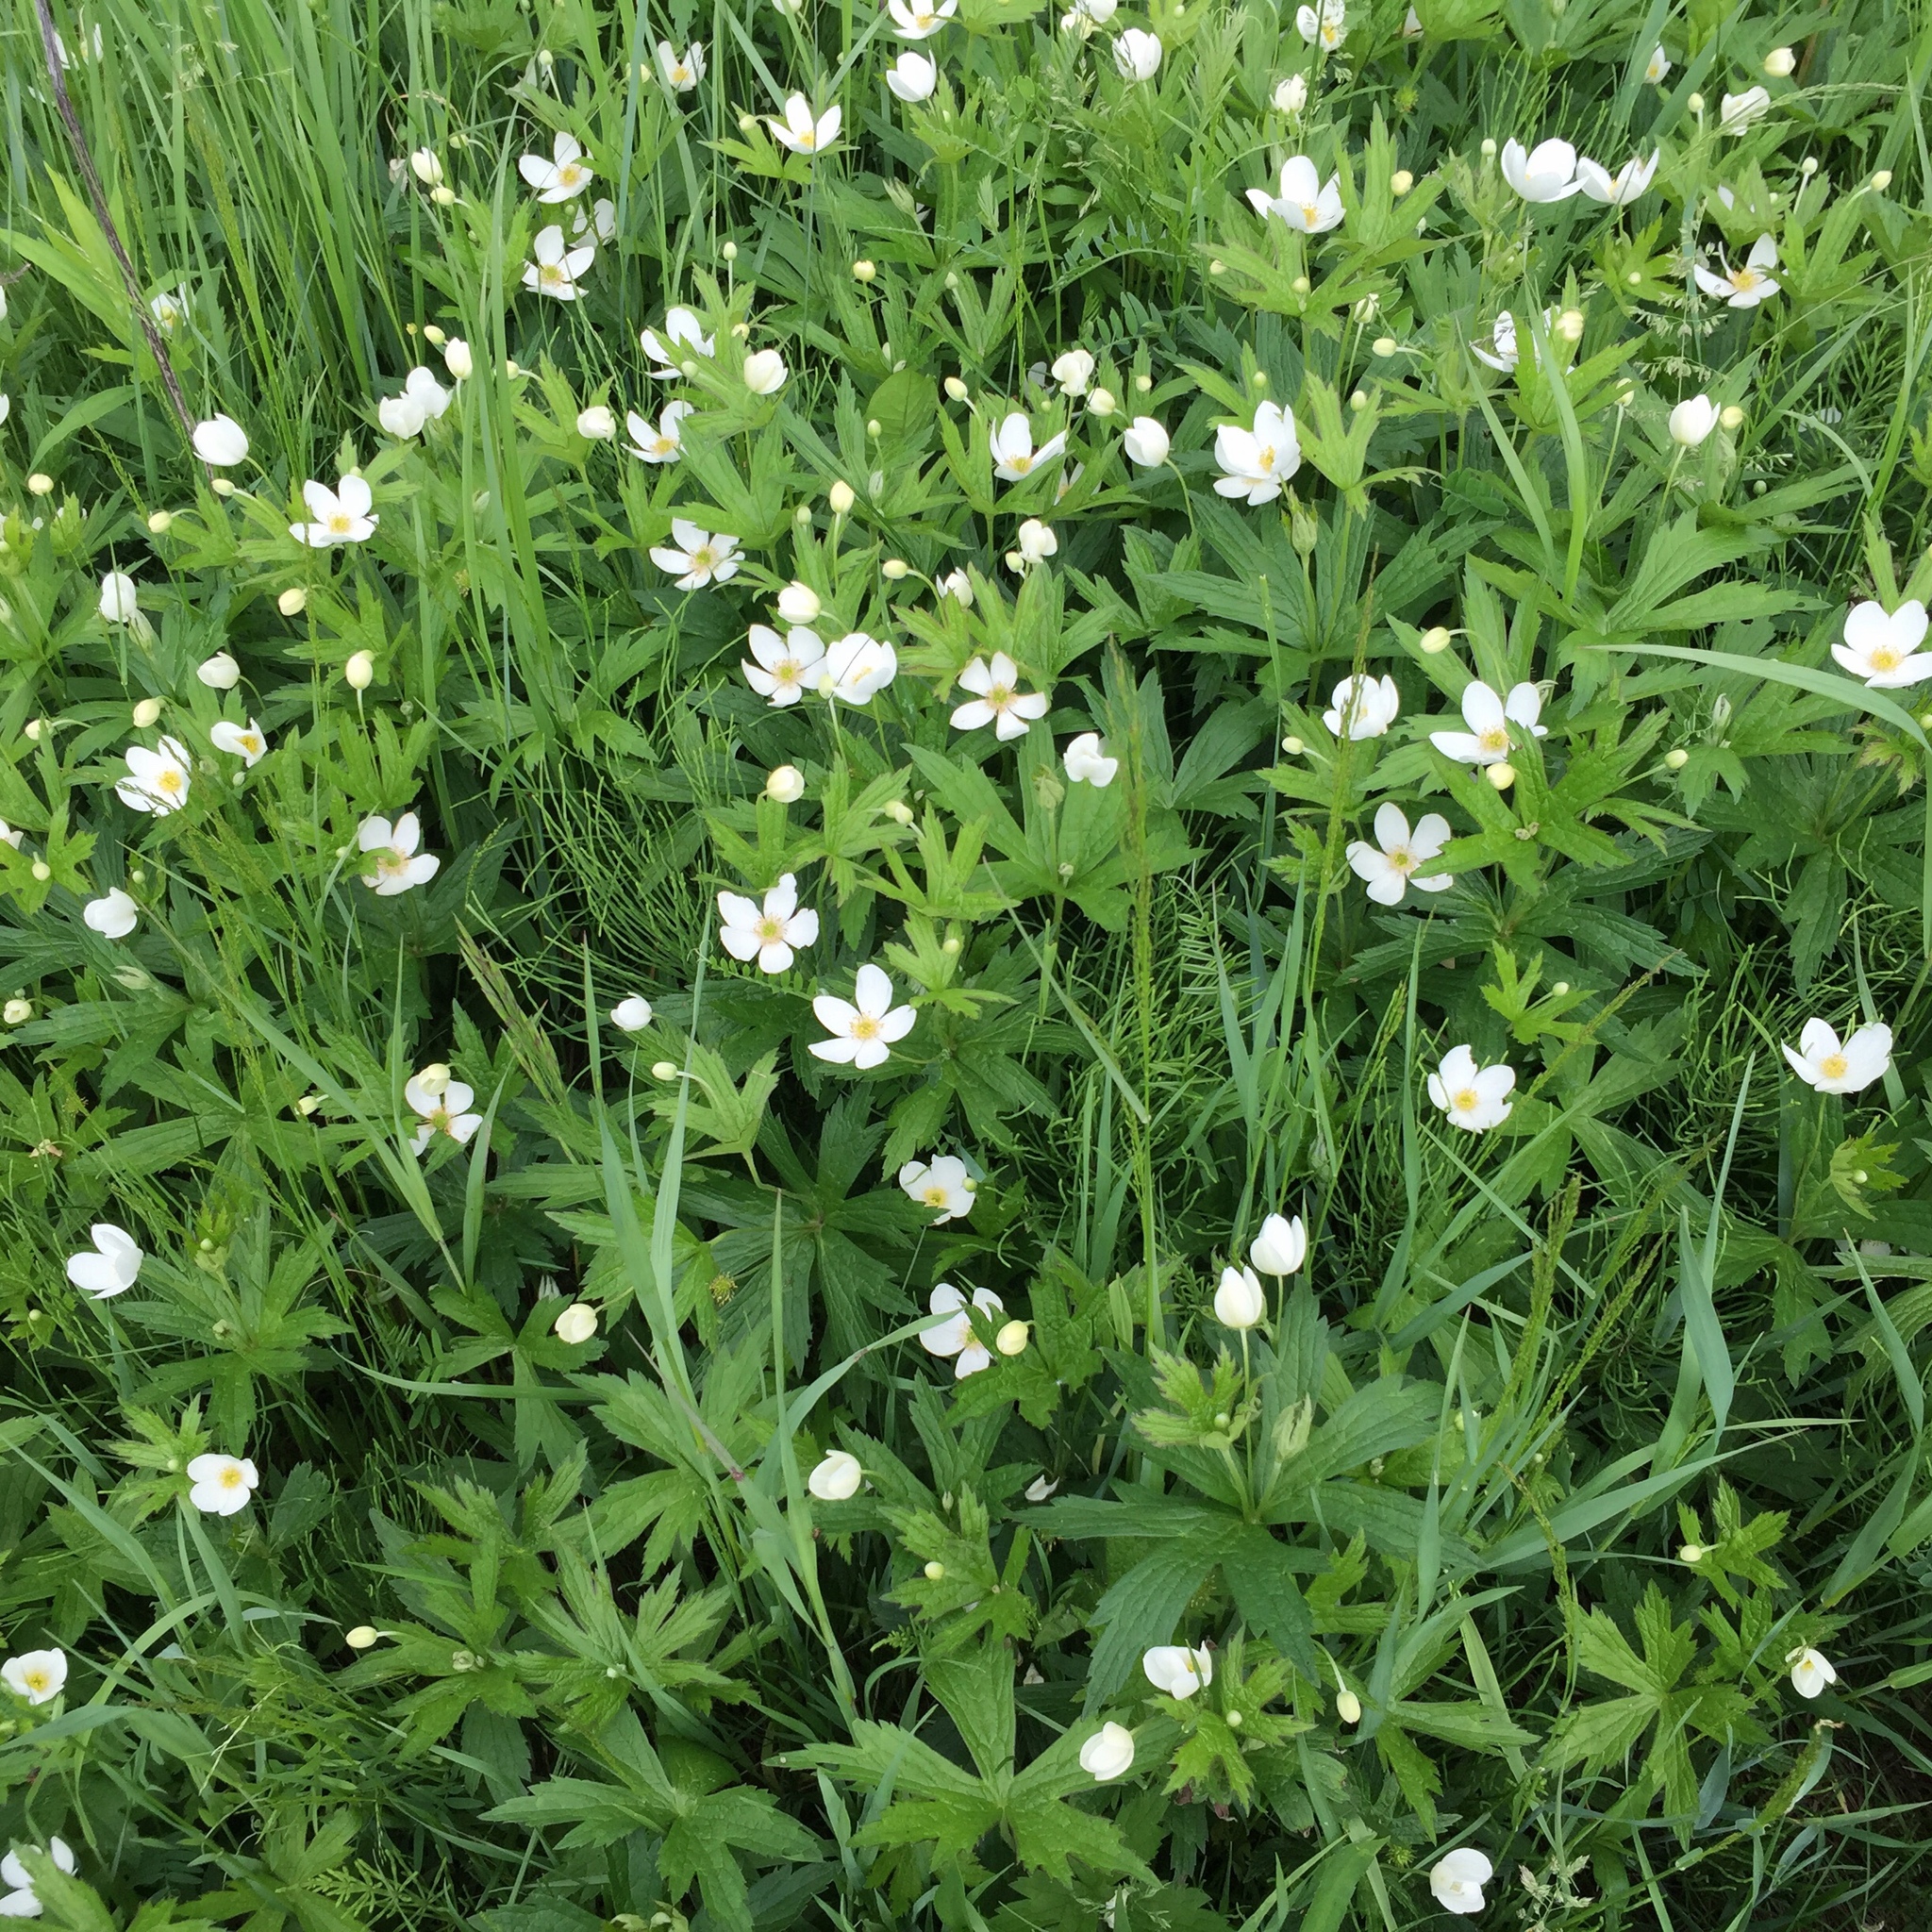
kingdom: Plantae
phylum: Tracheophyta
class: Magnoliopsida
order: Ranunculales
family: Ranunculaceae
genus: Anemonastrum
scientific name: Anemonastrum canadense
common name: Canada anemone
